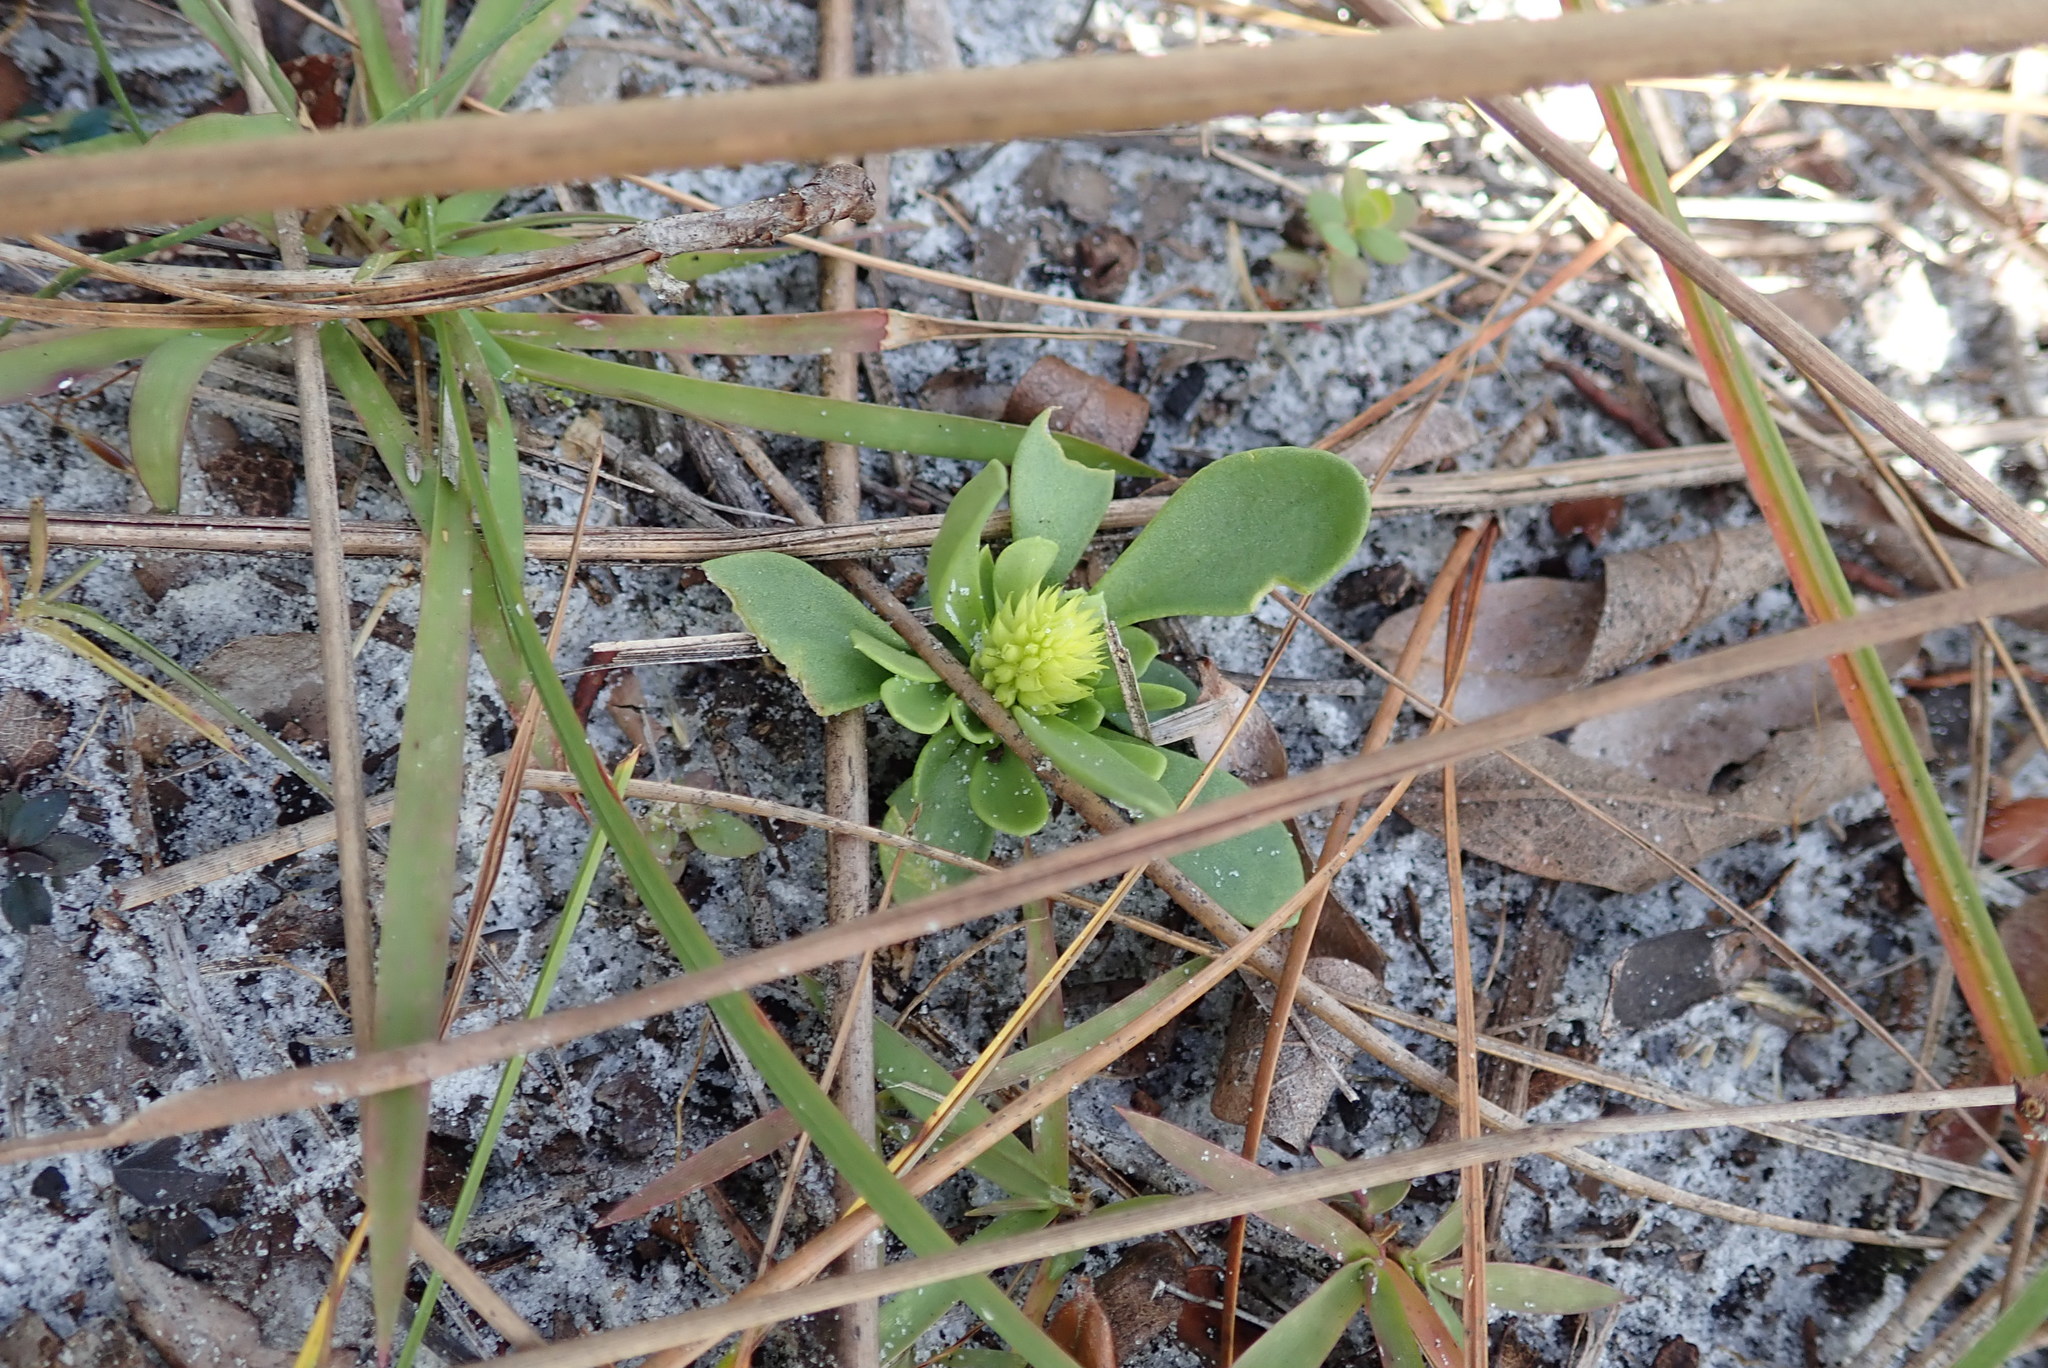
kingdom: Plantae
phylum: Tracheophyta
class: Magnoliopsida
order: Fabales
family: Polygalaceae
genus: Polygala
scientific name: Polygala nana
